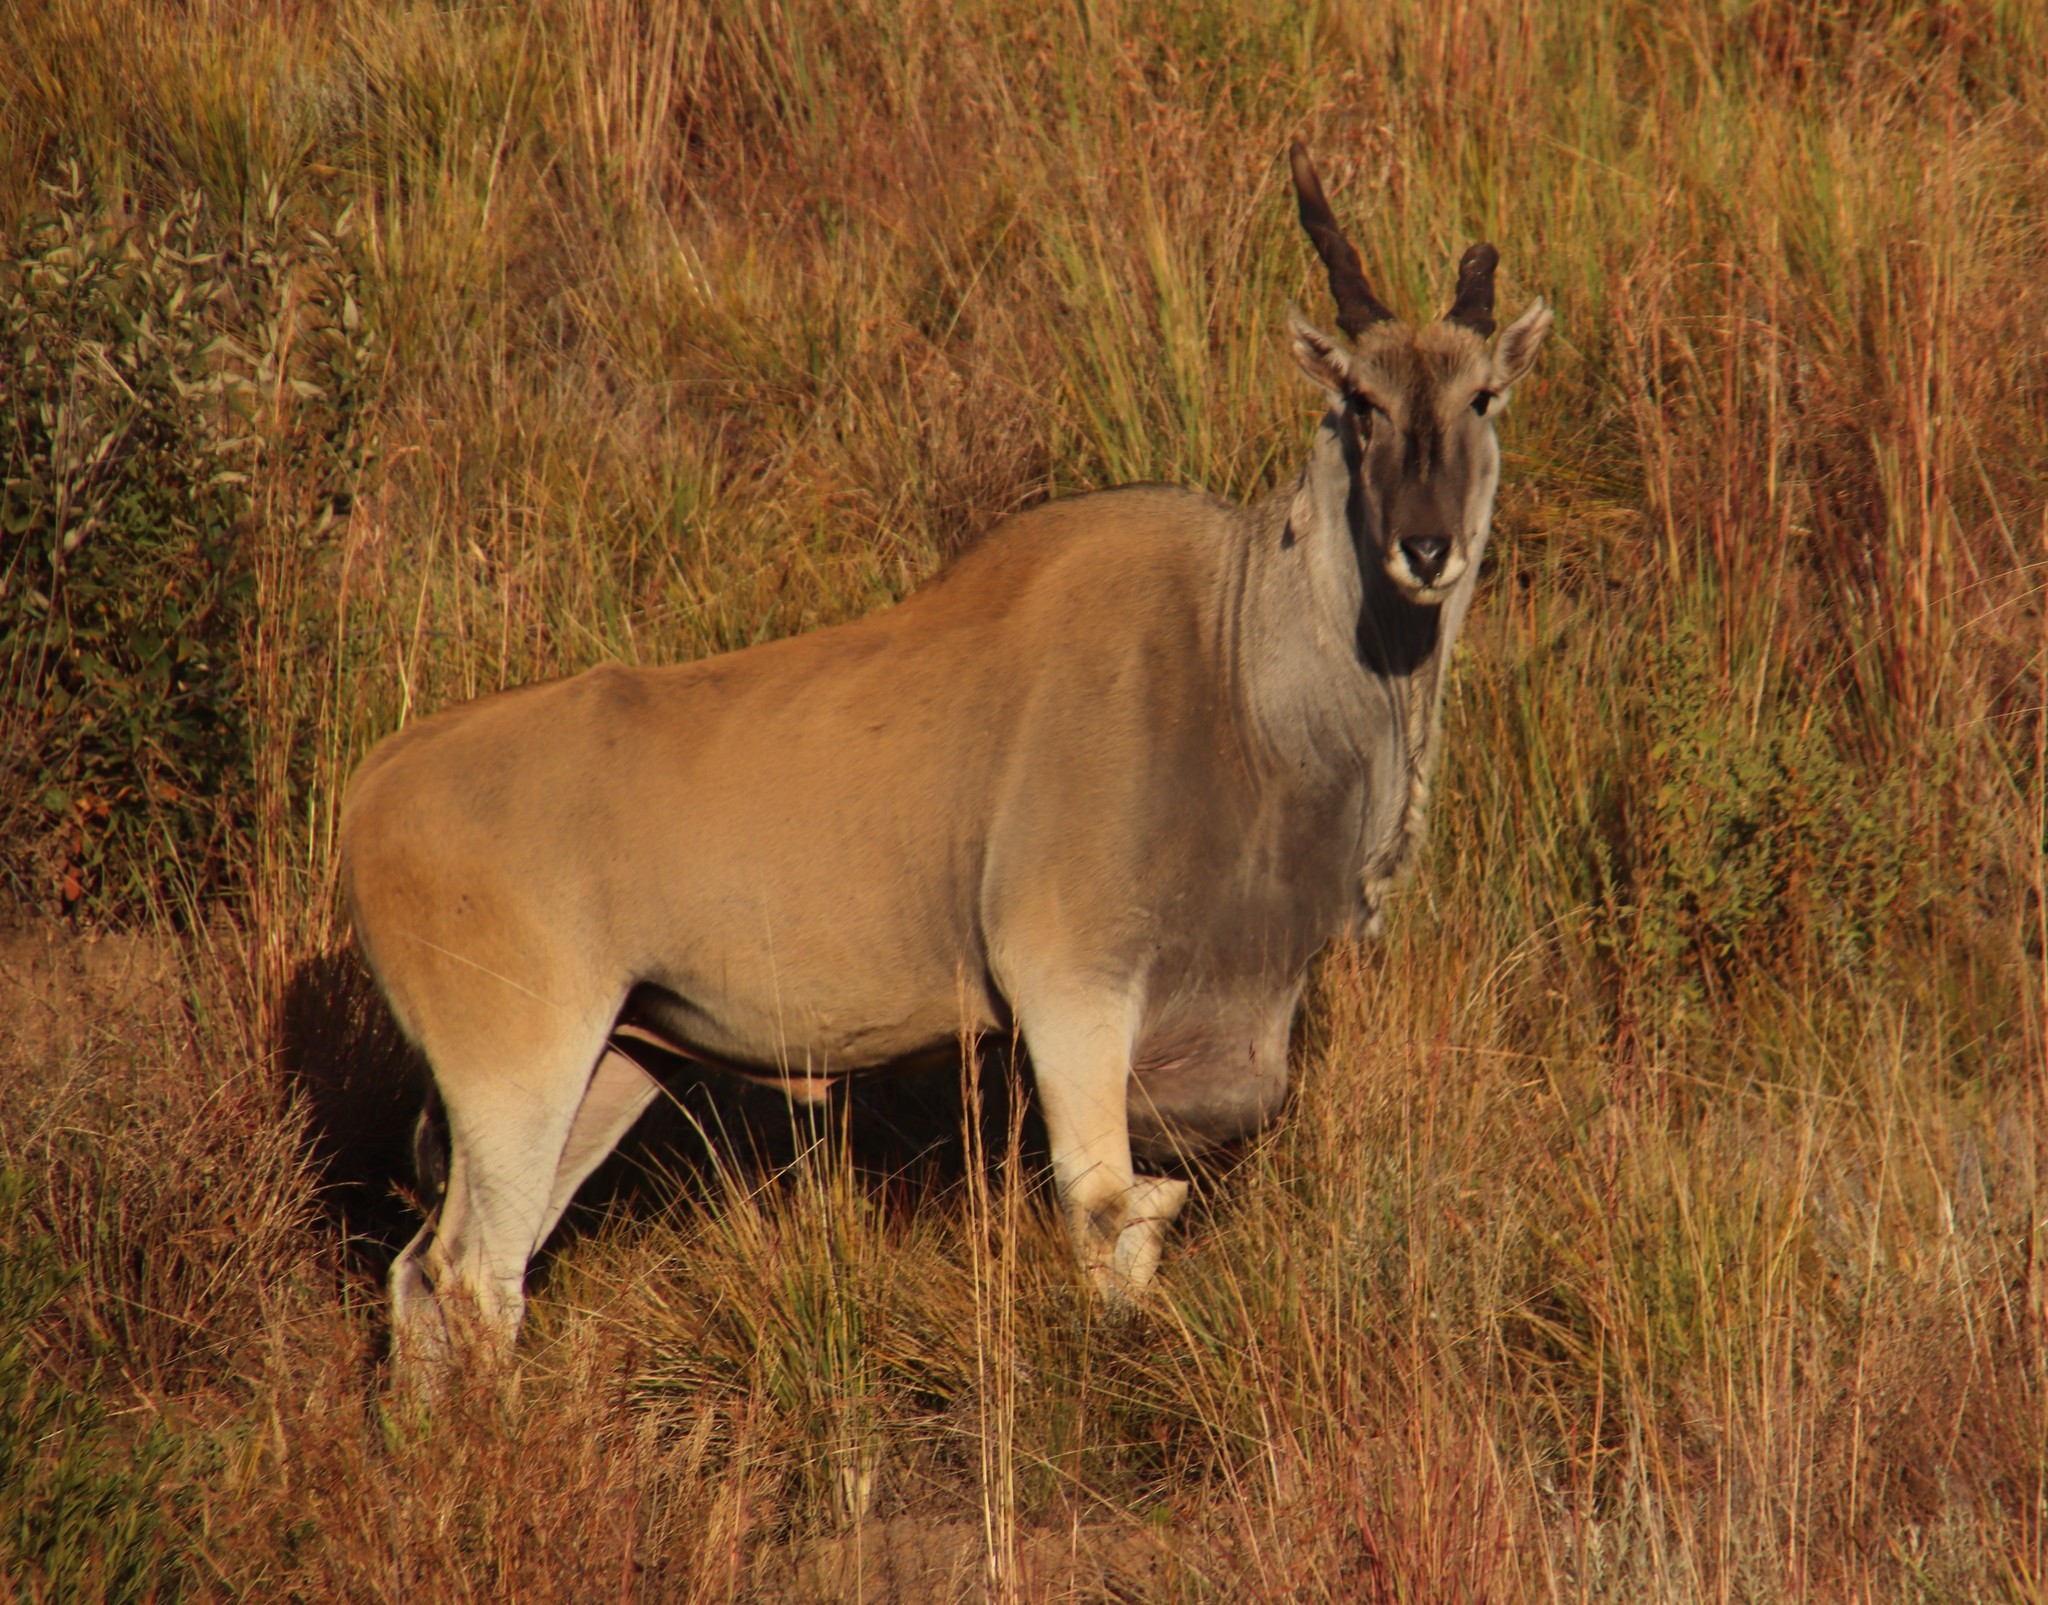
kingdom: Animalia
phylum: Chordata
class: Mammalia
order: Artiodactyla
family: Bovidae
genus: Taurotragus
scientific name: Taurotragus oryx
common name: Common eland
